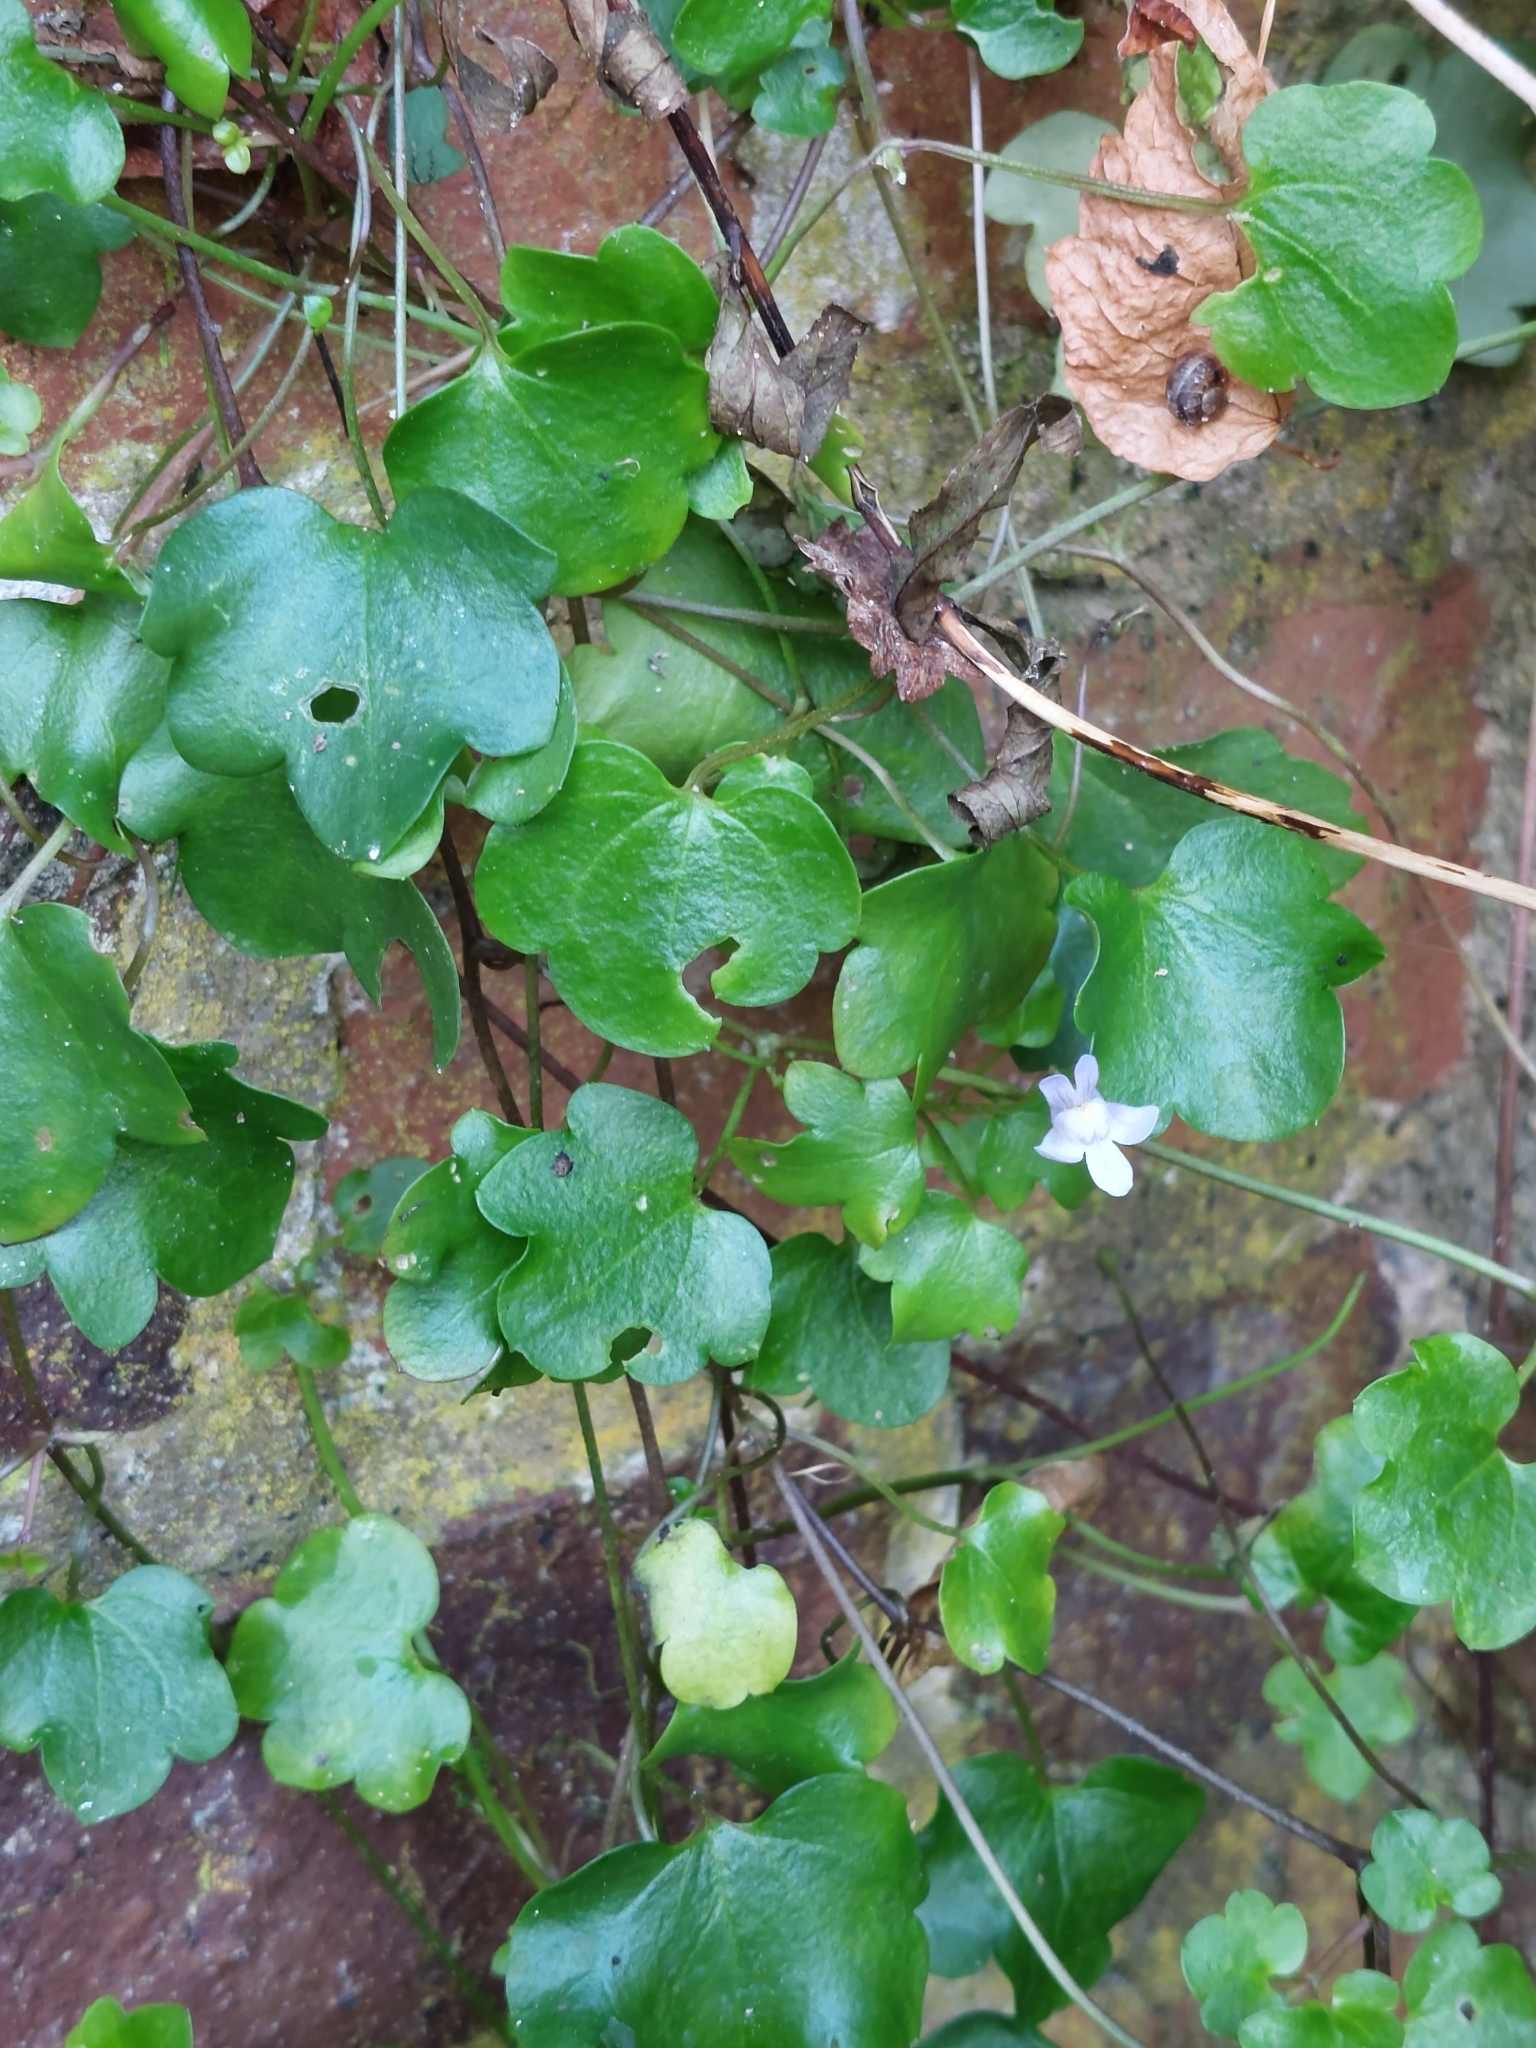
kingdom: Plantae
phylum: Tracheophyta
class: Magnoliopsida
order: Lamiales
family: Plantaginaceae
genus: Cymbalaria
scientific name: Cymbalaria muralis
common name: Ivy-leaved toadflax
